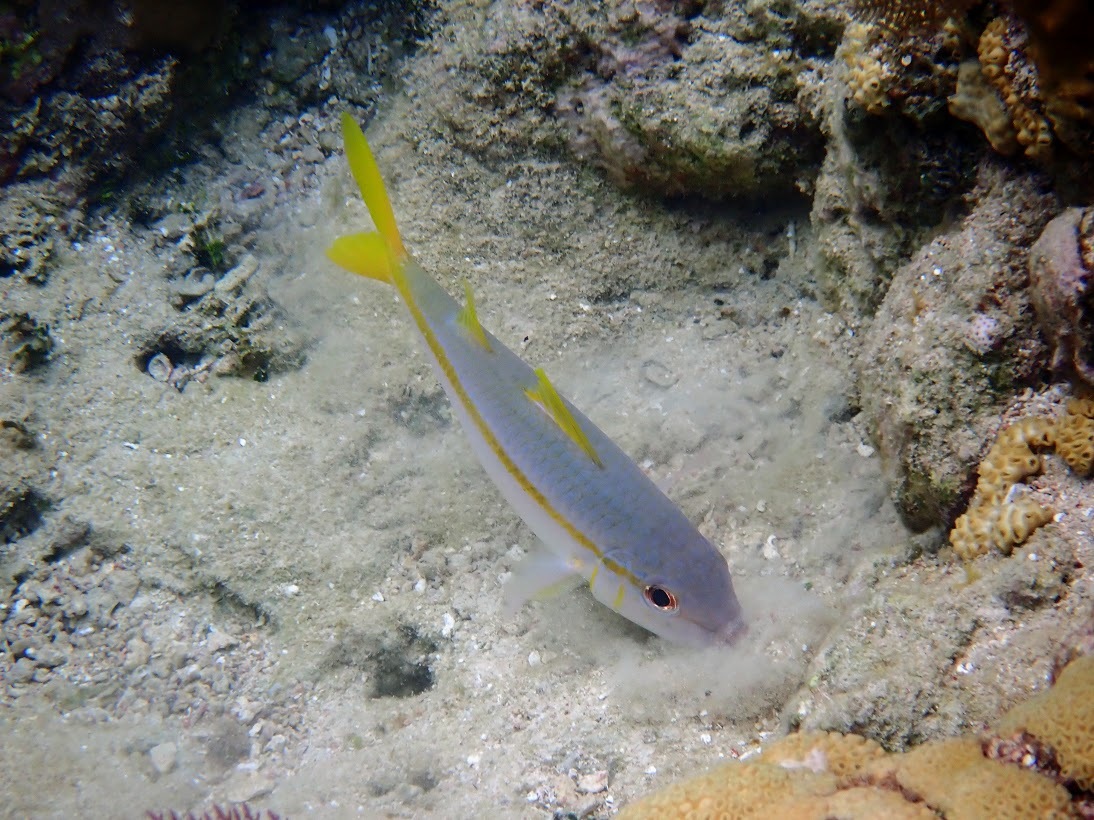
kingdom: Animalia
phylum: Chordata
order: Perciformes
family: Mullidae
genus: Mulloidichthys
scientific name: Mulloidichthys martinicus
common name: Yellow goatfish
